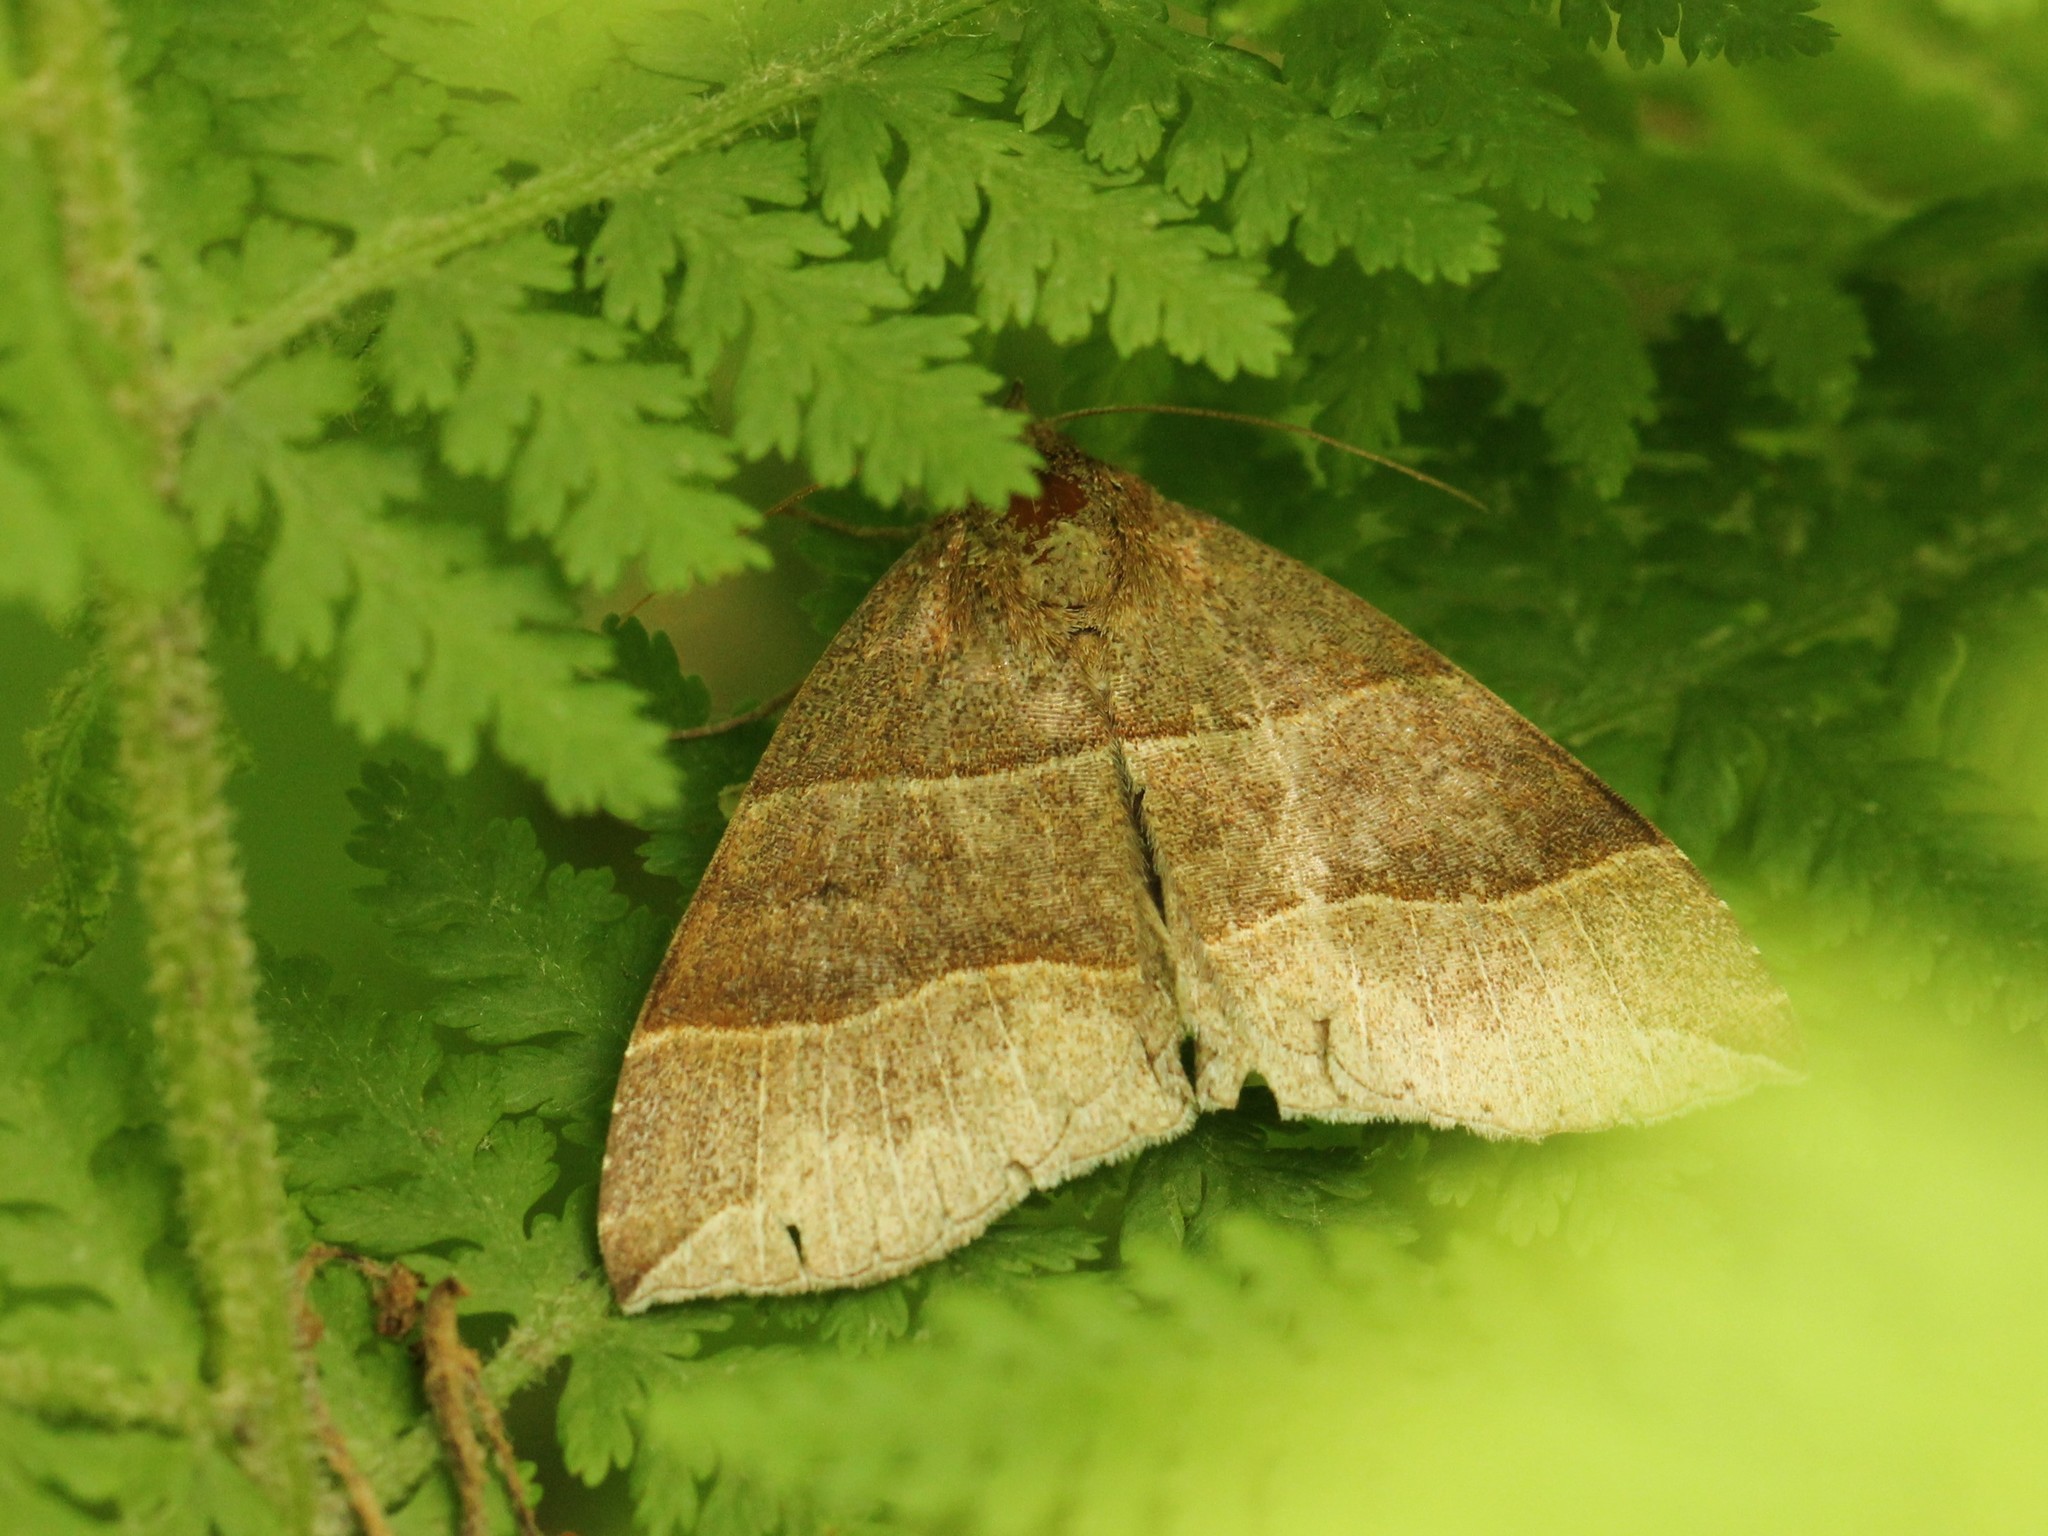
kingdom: Animalia
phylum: Arthropoda
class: Insecta
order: Lepidoptera
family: Erebidae
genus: Parallelia
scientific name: Parallelia bistriaris
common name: Maple looper moth
